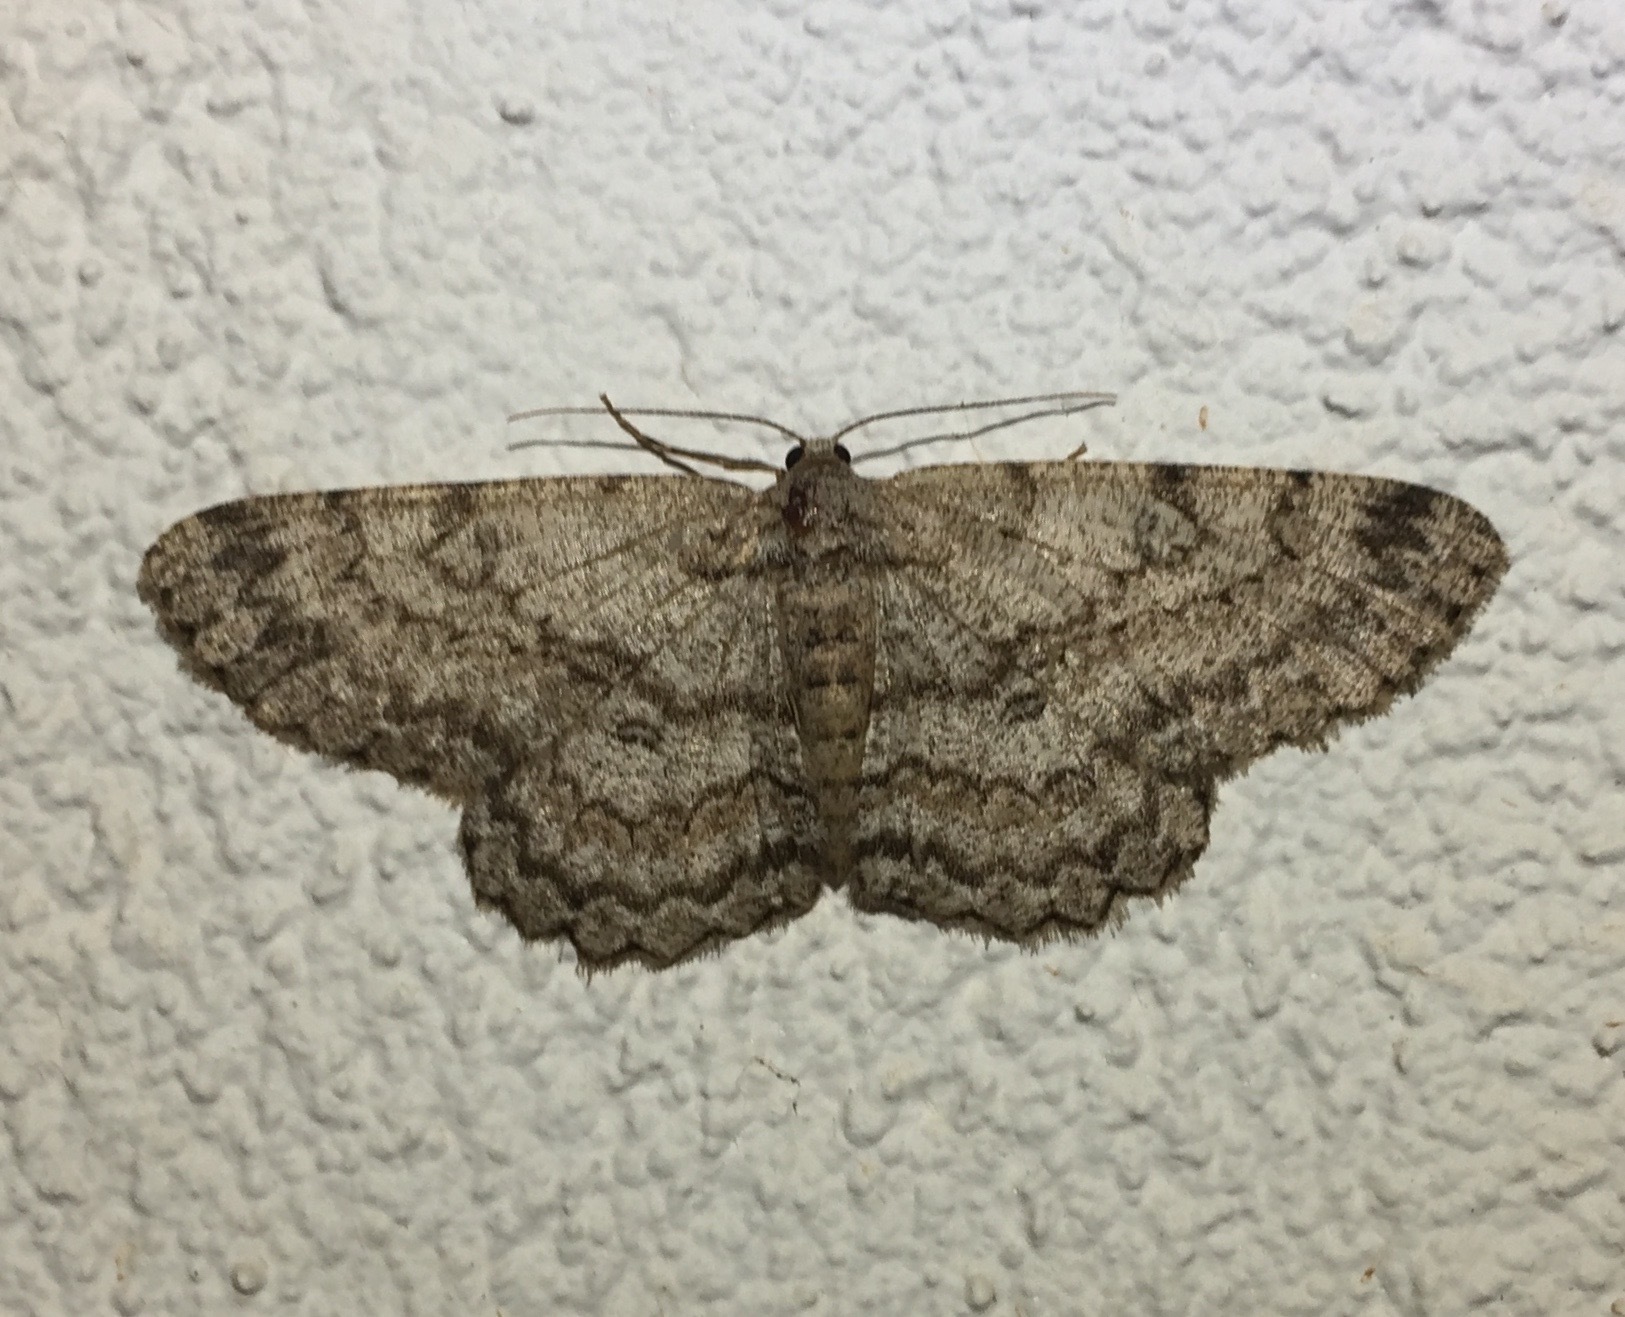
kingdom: Animalia
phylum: Arthropoda
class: Insecta
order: Lepidoptera
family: Geometridae
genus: Hypomecis
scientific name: Hypomecis punctinalis
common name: Pale oak beauty
